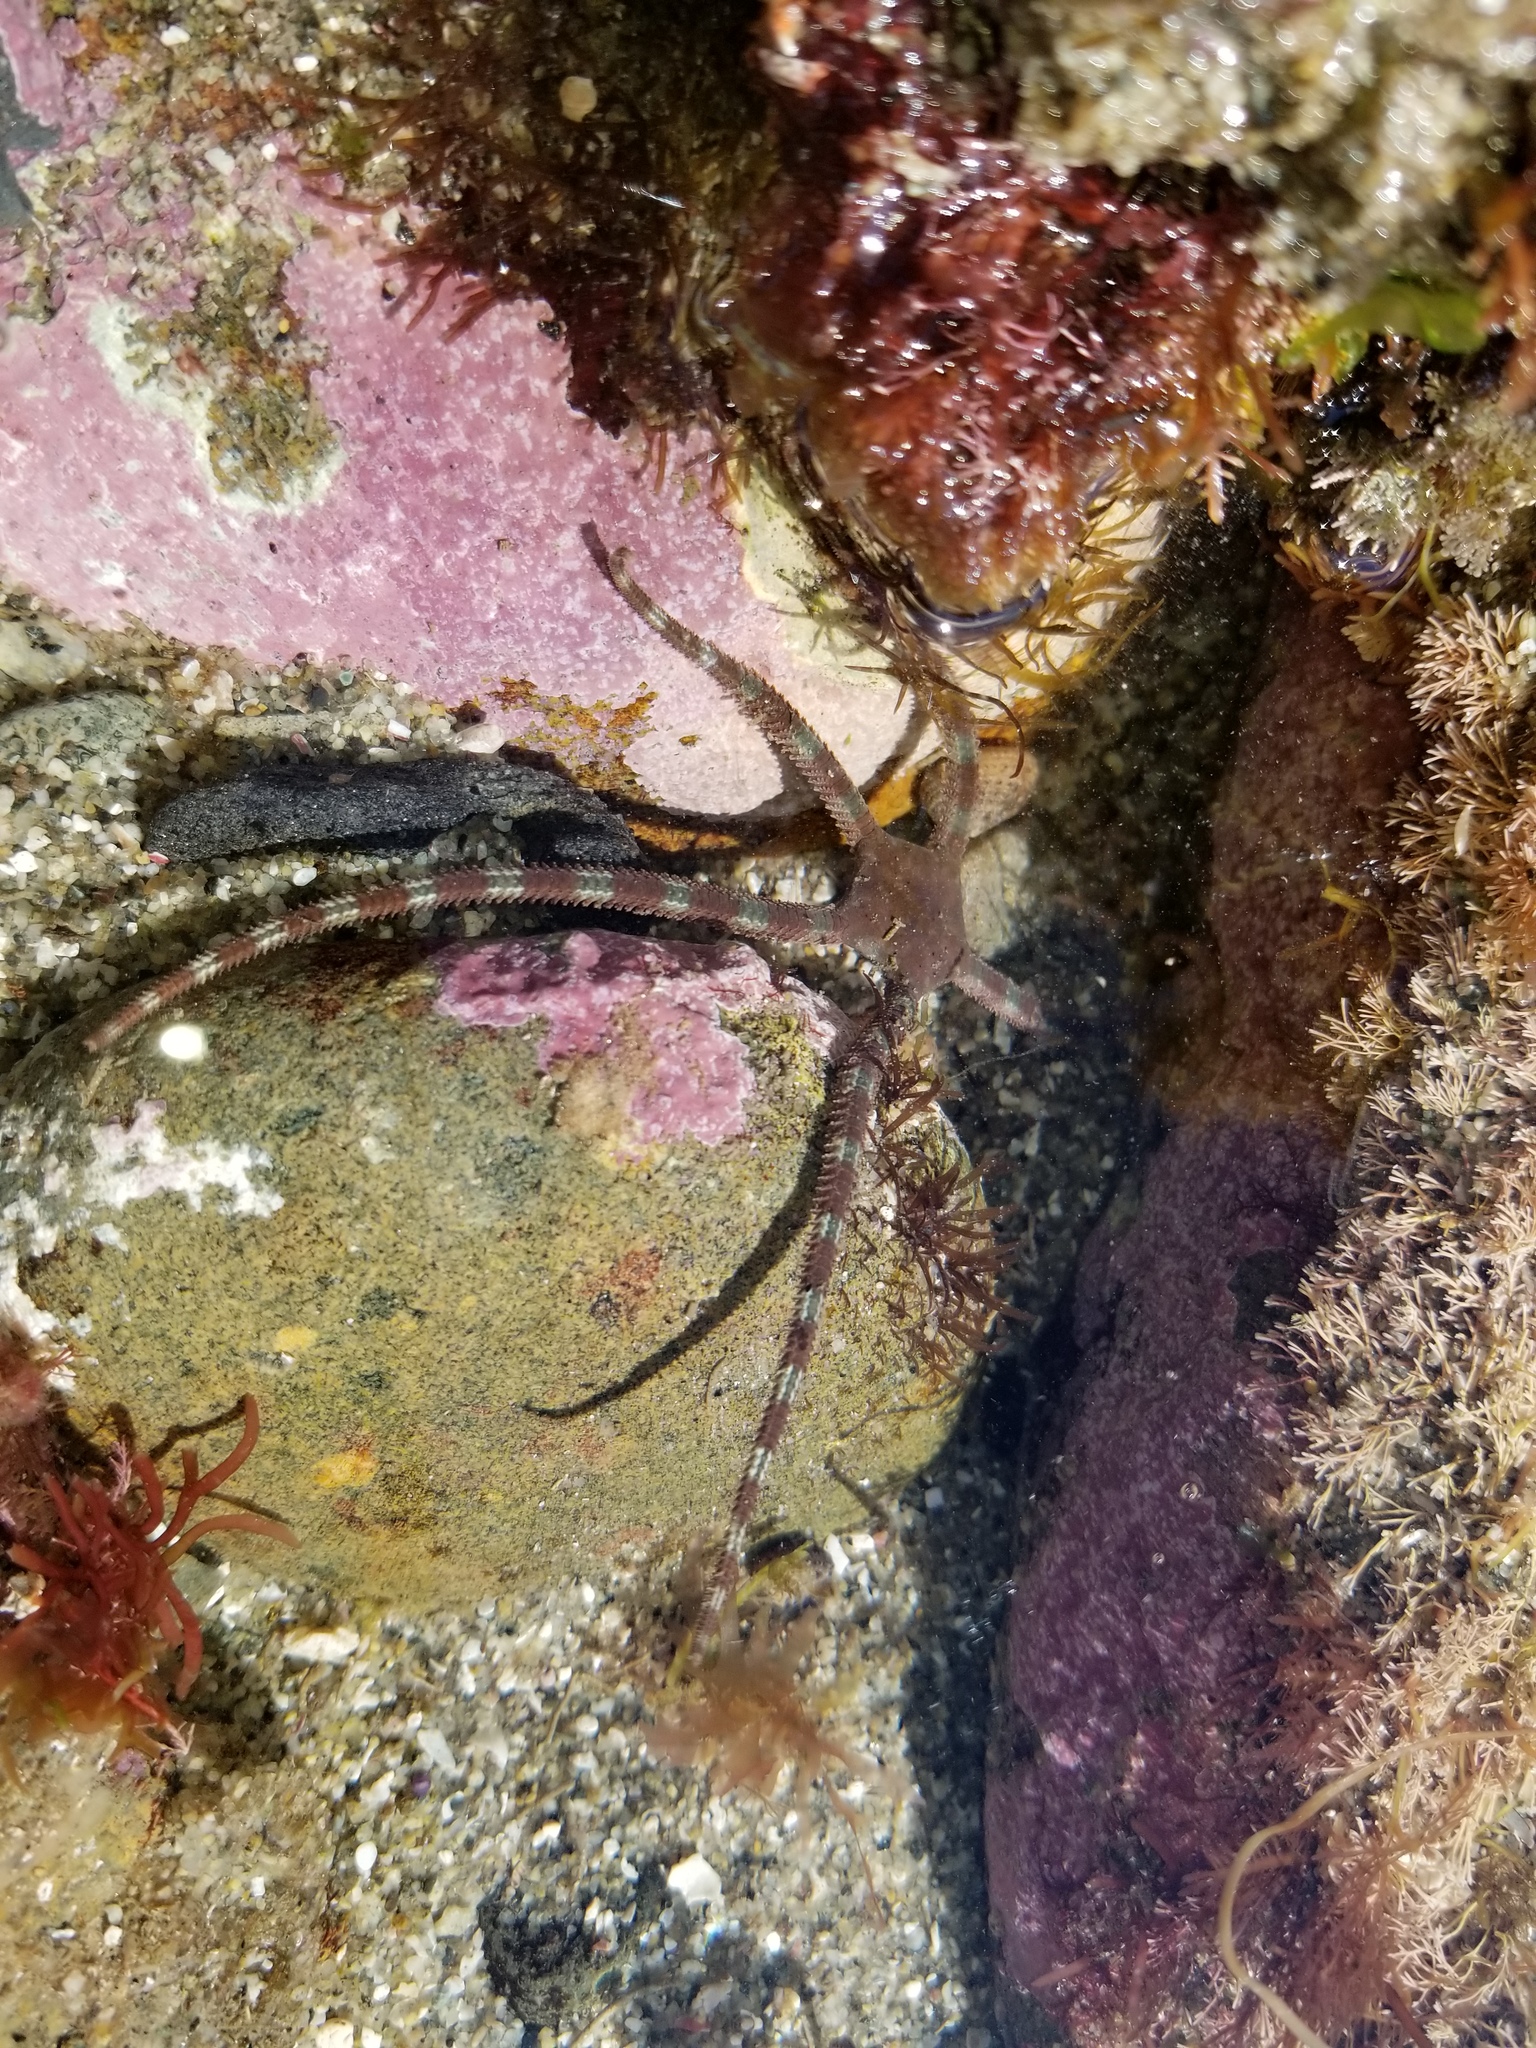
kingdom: Animalia
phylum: Echinodermata
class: Ophiuroidea
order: Ophiacanthida
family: Ophiodermatidae
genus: Ophioderma
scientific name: Ophioderma panamense
